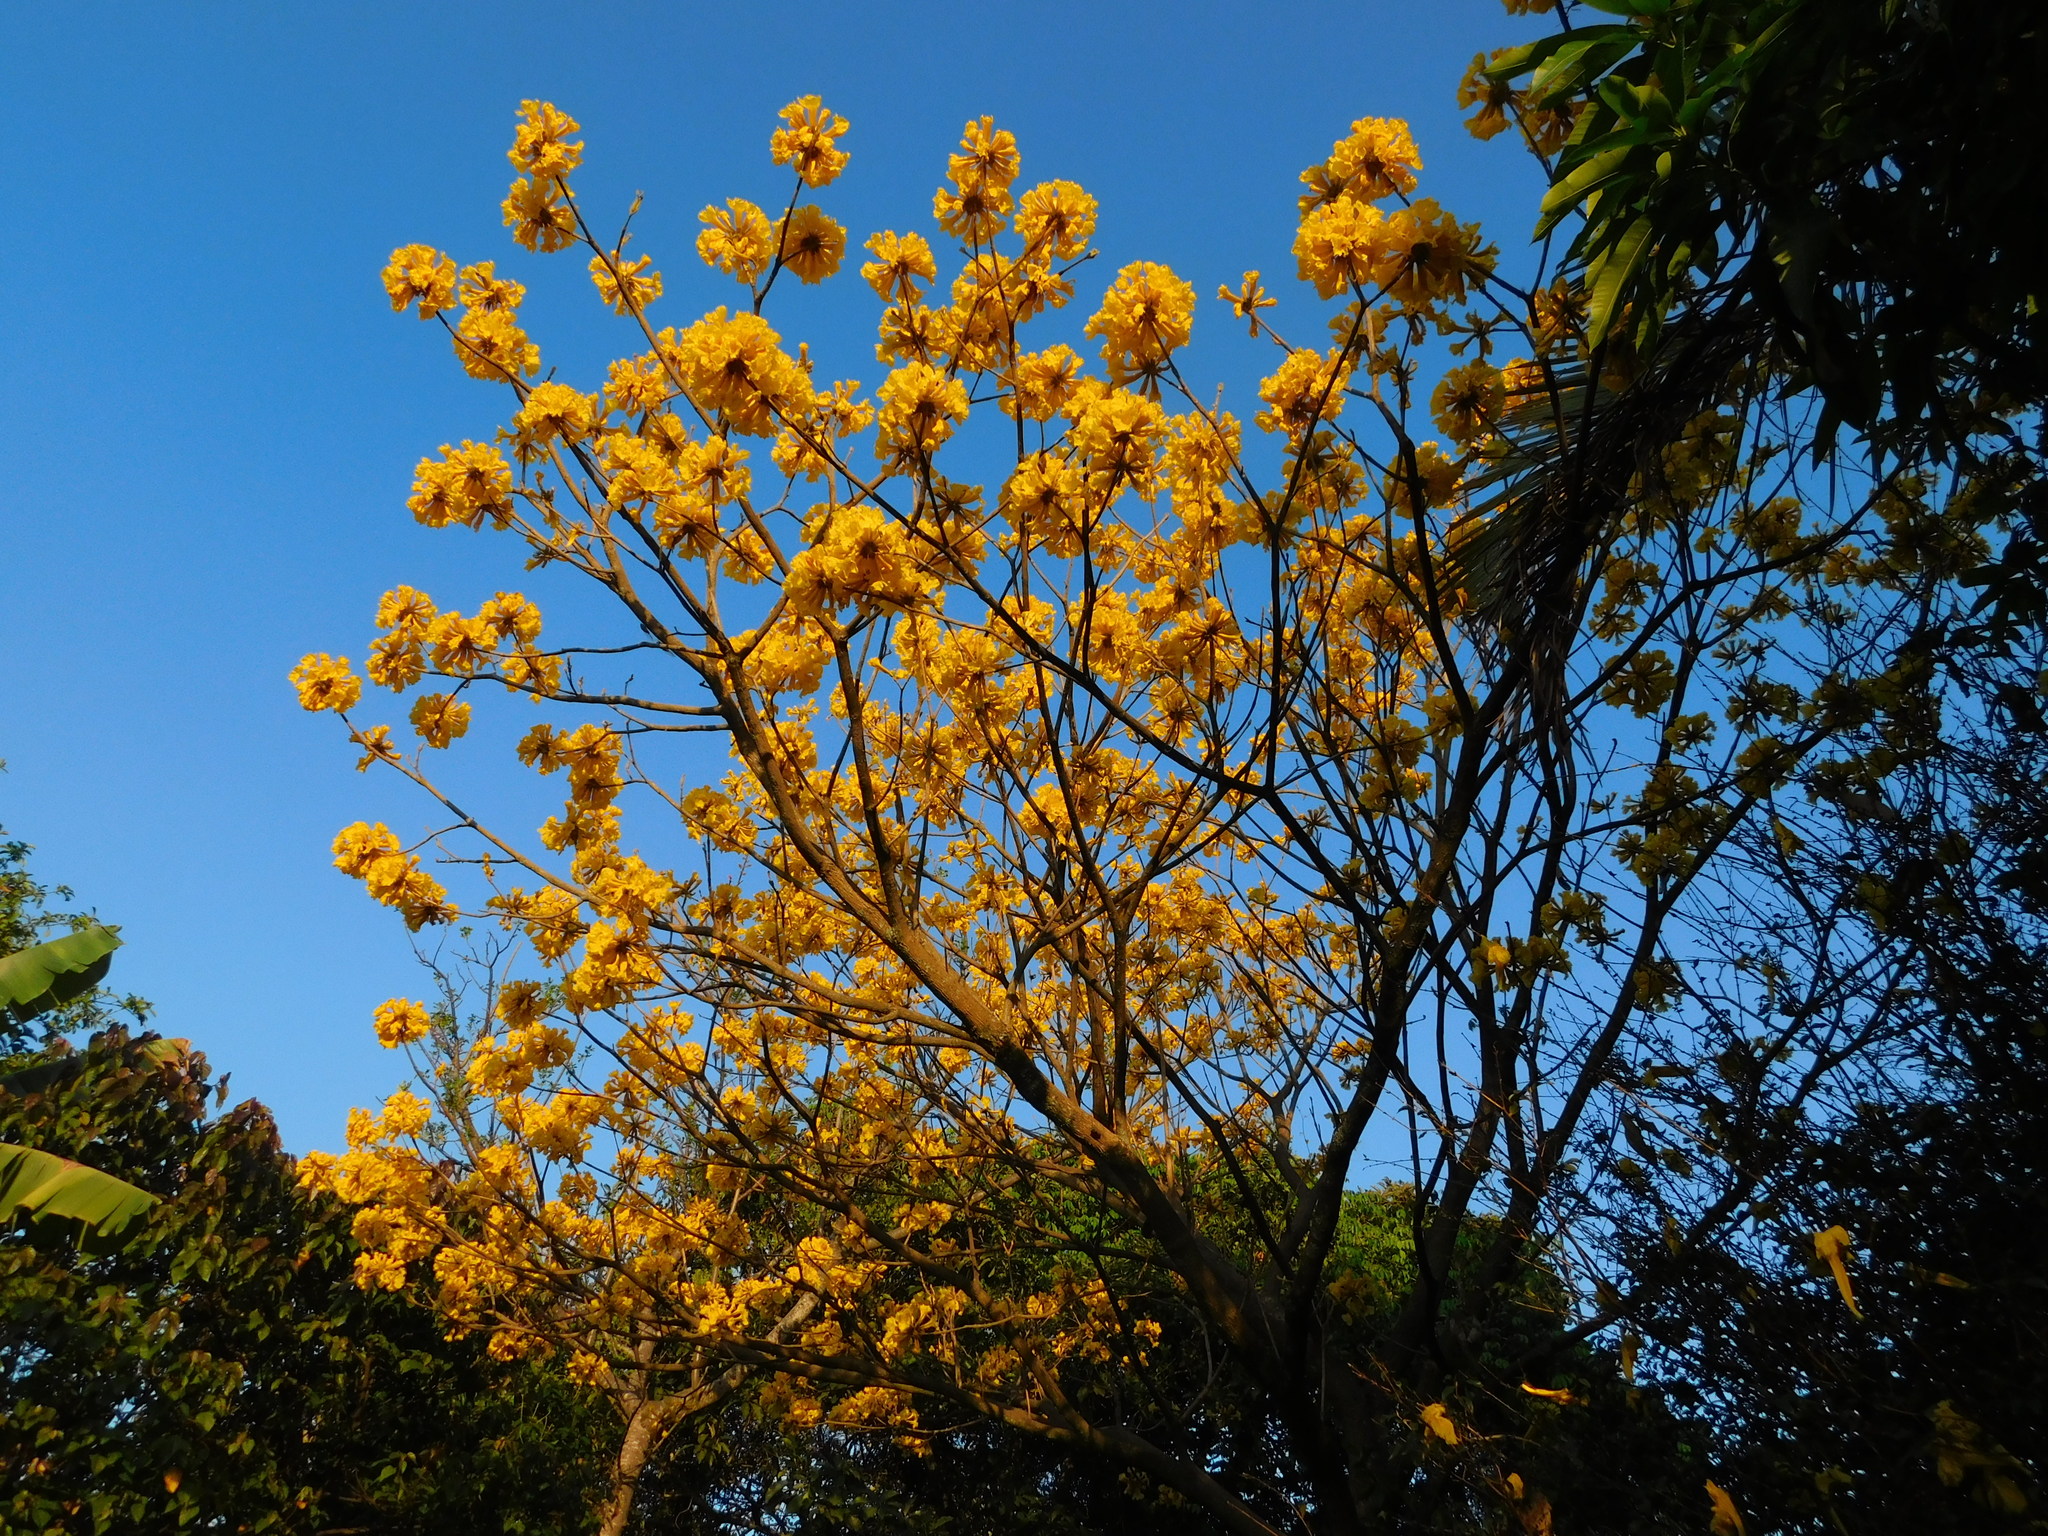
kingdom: Plantae
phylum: Tracheophyta
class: Magnoliopsida
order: Lamiales
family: Bignoniaceae
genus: Handroanthus
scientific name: Handroanthus ochraceus
